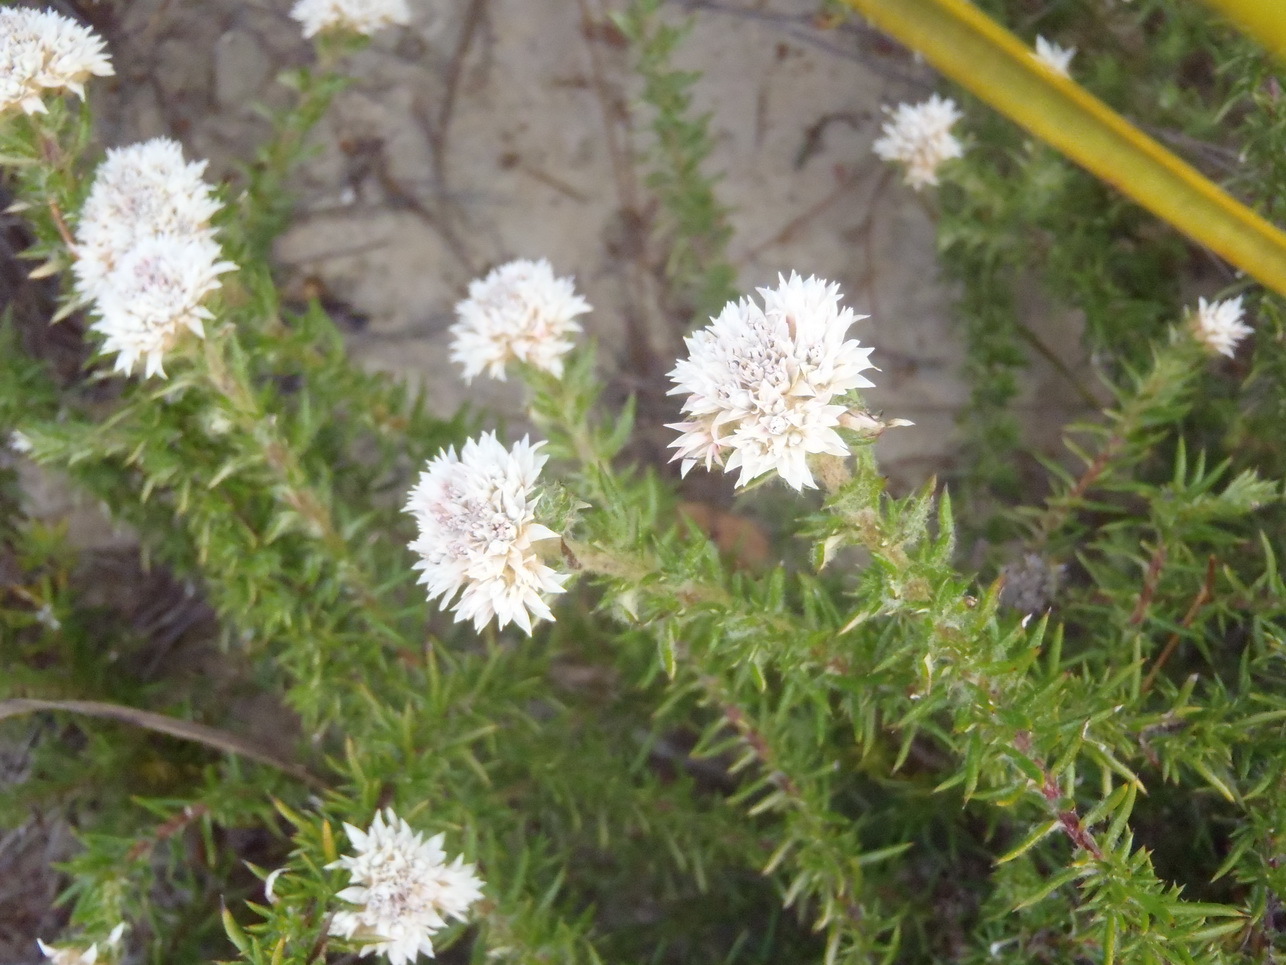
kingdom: Plantae
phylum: Tracheophyta
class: Magnoliopsida
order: Asterales
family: Asteraceae
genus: Metalasia
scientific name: Metalasia inversa
